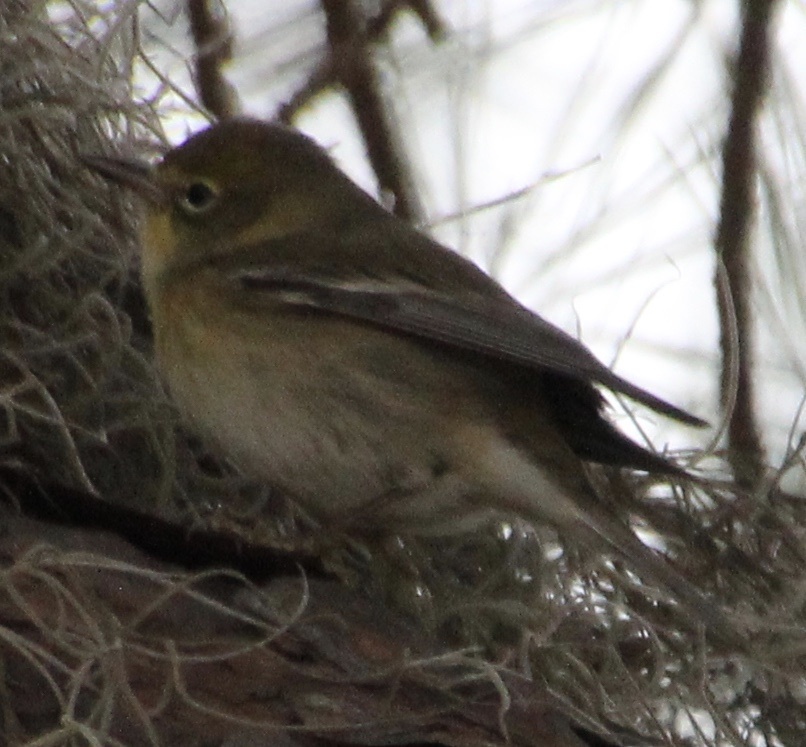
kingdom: Animalia
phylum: Chordata
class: Aves
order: Passeriformes
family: Parulidae
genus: Setophaga
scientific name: Setophaga pinus
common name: Pine warbler
